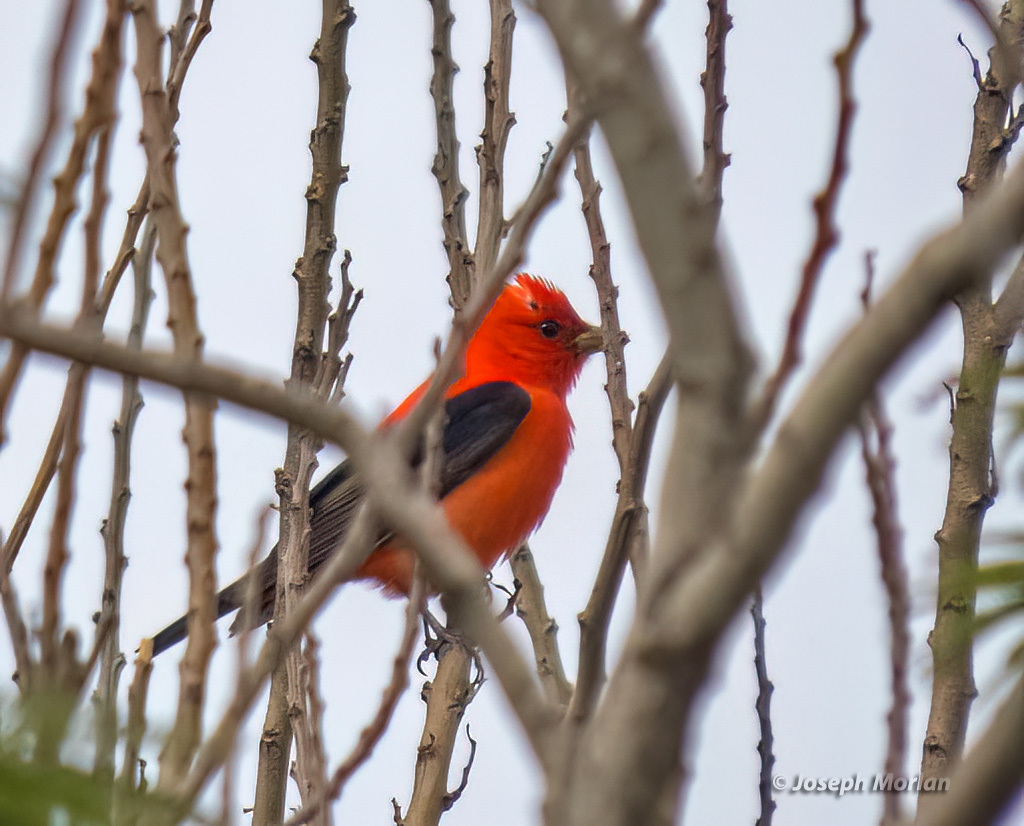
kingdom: Animalia
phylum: Chordata
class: Aves
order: Passeriformes
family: Cardinalidae
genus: Piranga
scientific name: Piranga olivacea
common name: Scarlet tanager
